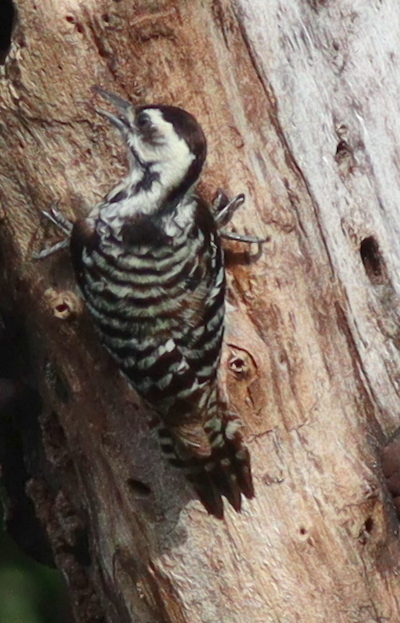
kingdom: Animalia
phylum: Chordata
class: Aves
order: Piciformes
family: Picidae
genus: Dendrocopos
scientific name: Dendrocopos analis
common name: Freckle-breasted woodpecker
